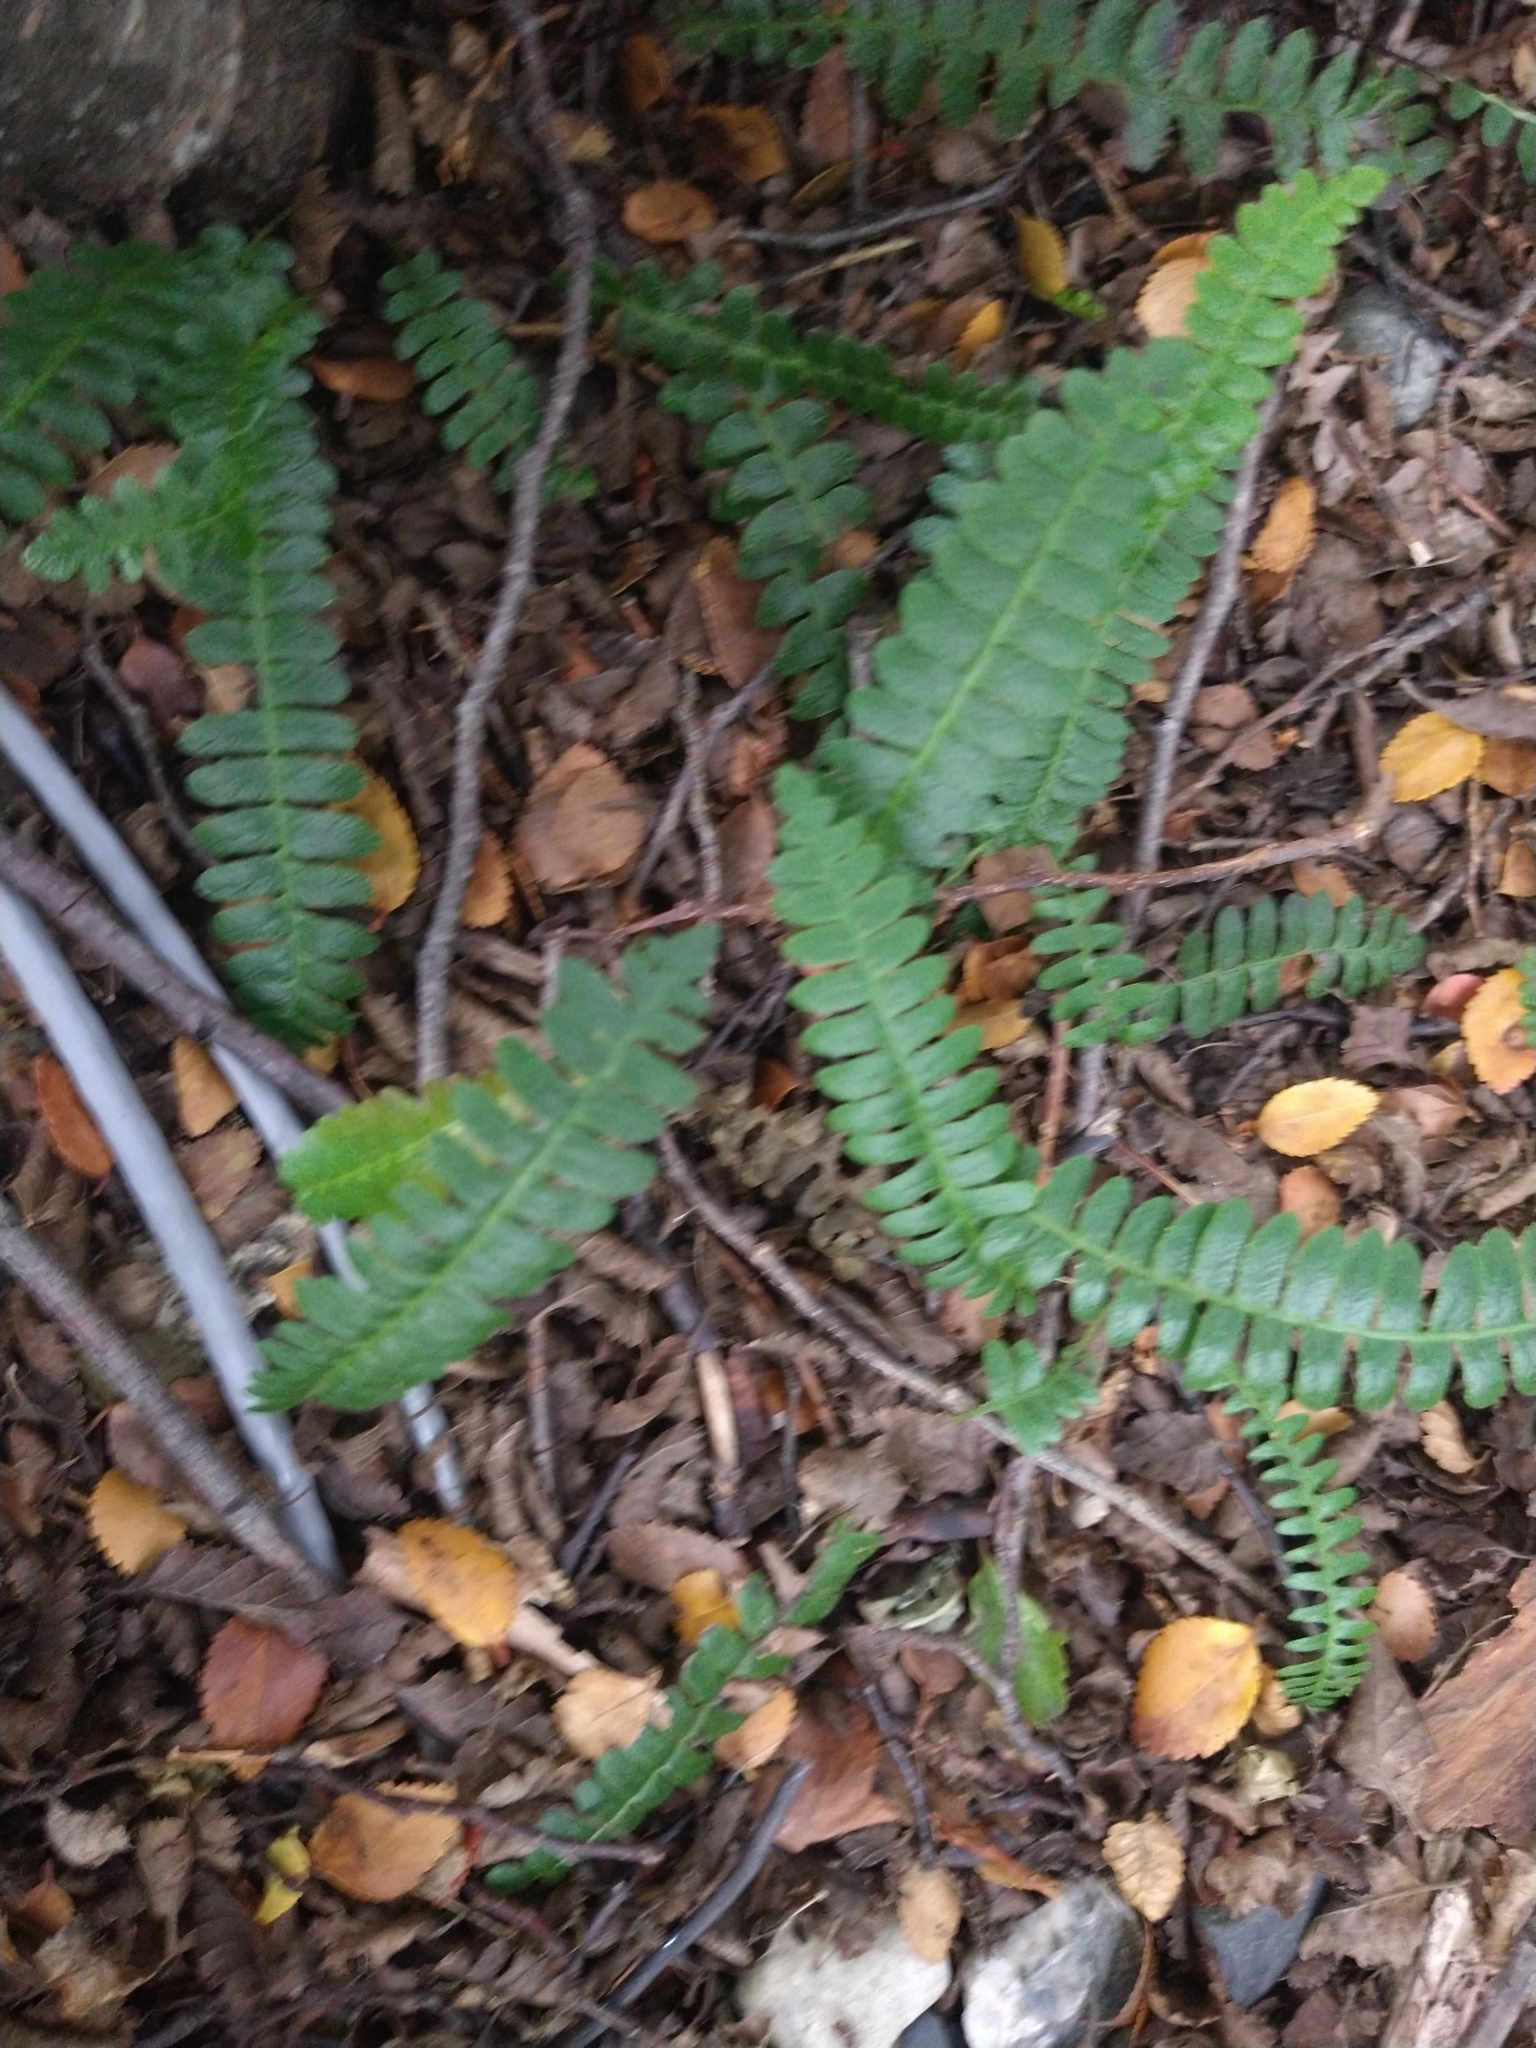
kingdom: Plantae
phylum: Tracheophyta
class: Polypodiopsida
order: Polypodiales
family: Blechnaceae
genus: Austroblechnum
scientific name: Austroblechnum penna-marina
